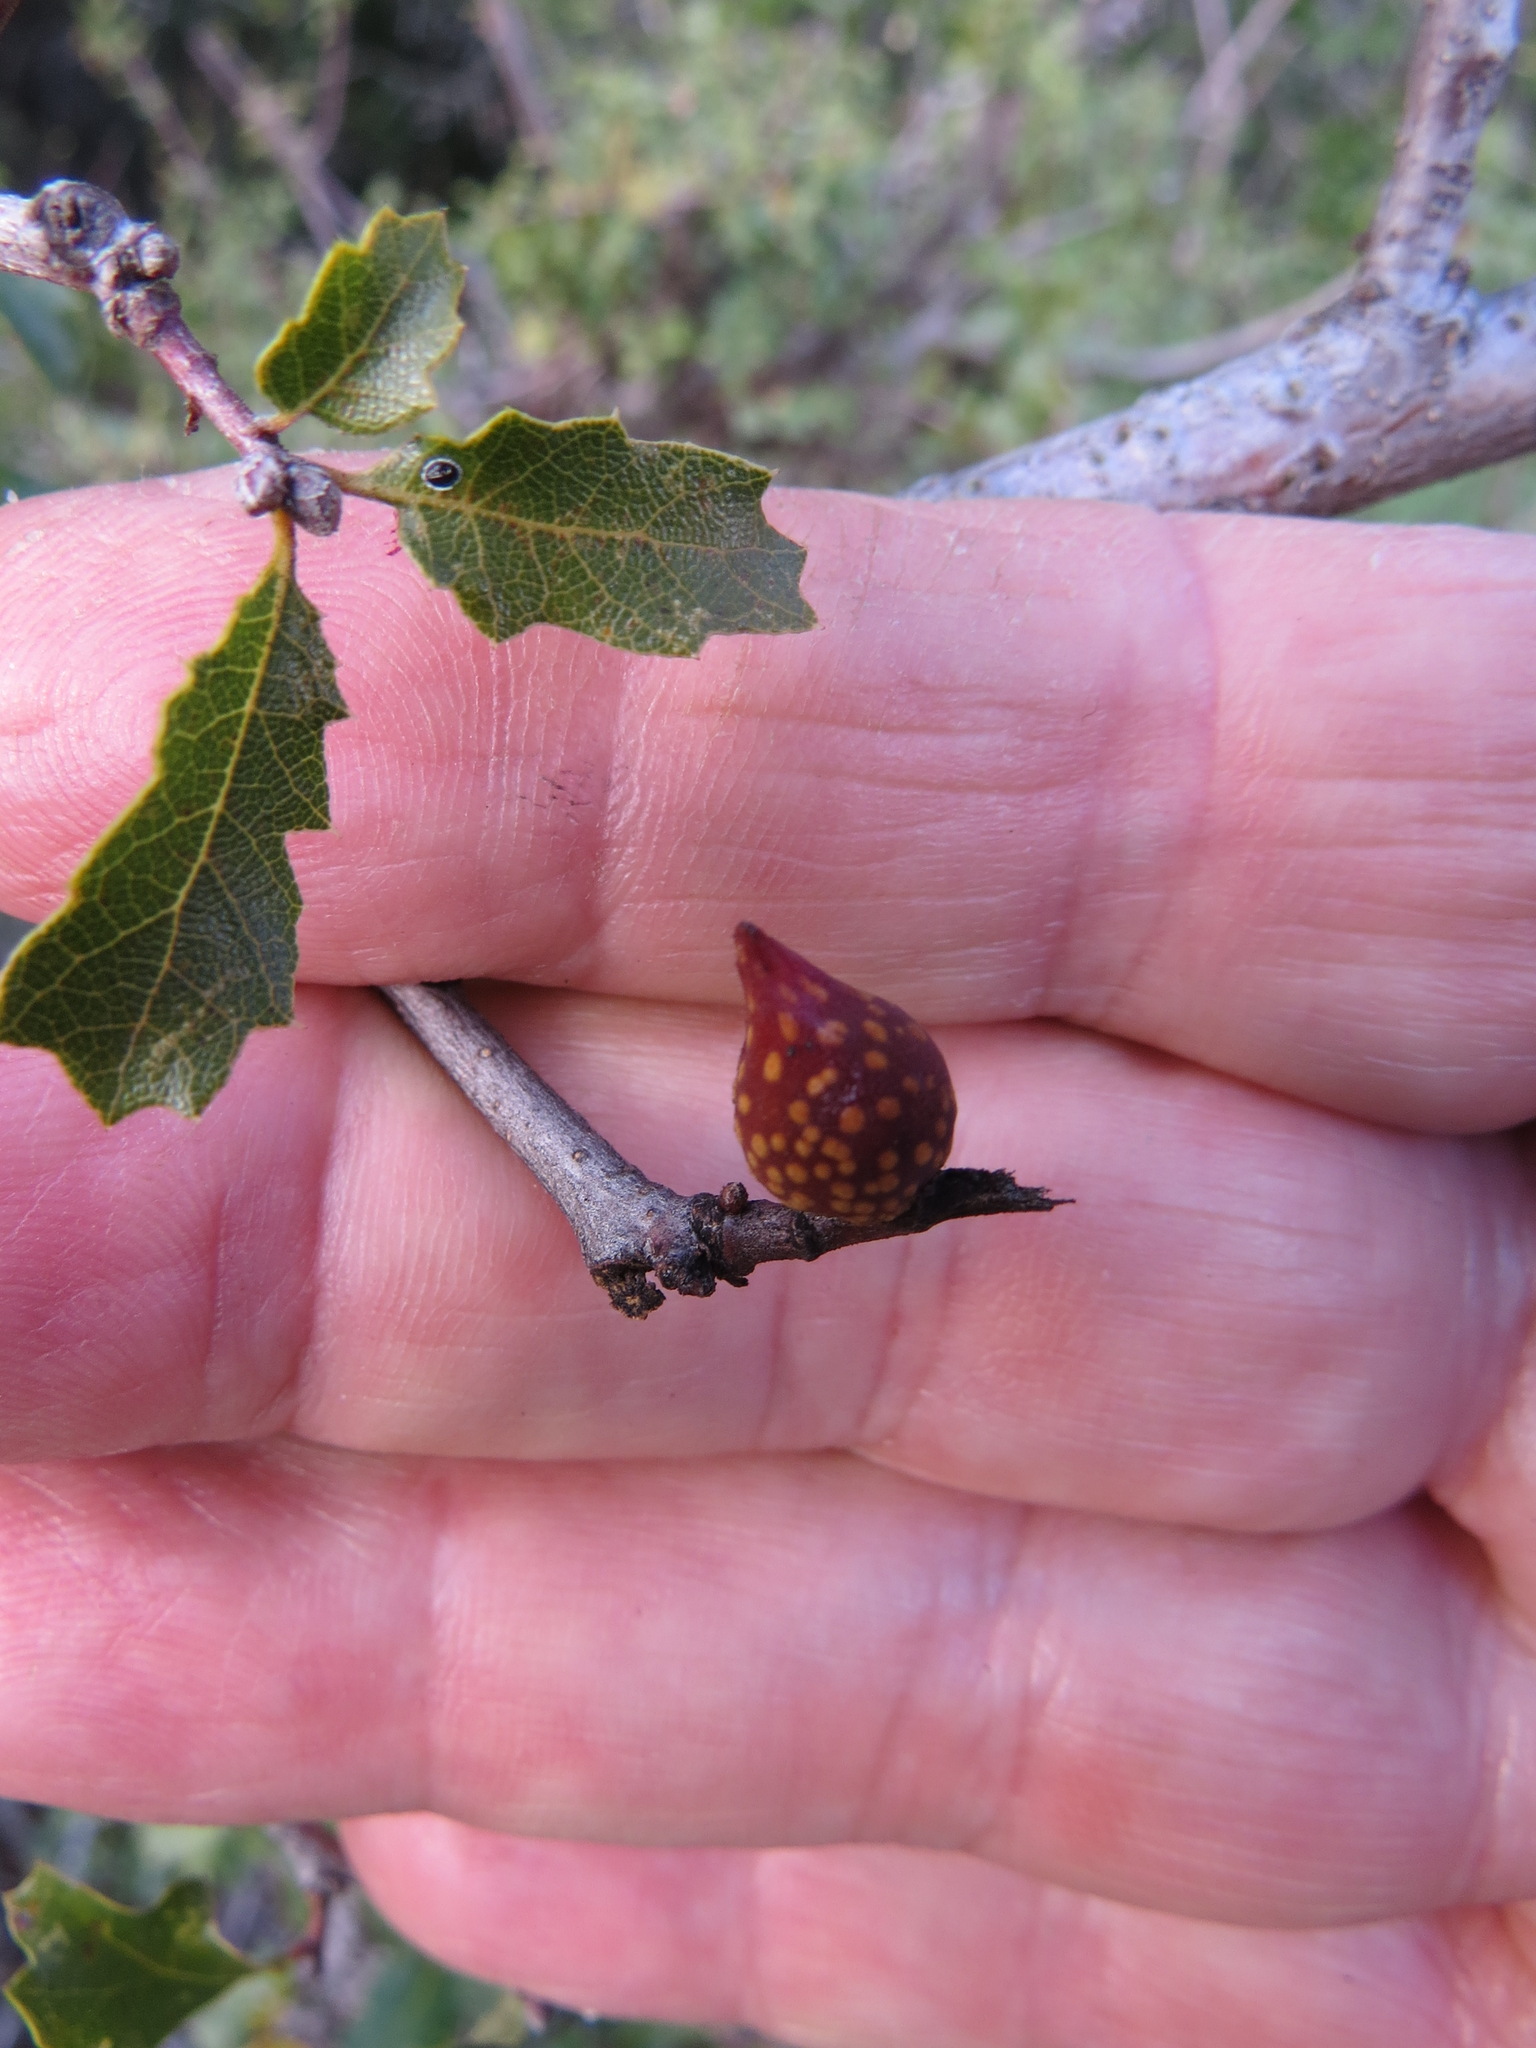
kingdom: Animalia
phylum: Arthropoda
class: Insecta
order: Hymenoptera
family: Cynipidae
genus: Burnettweldia
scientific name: Burnettweldia
